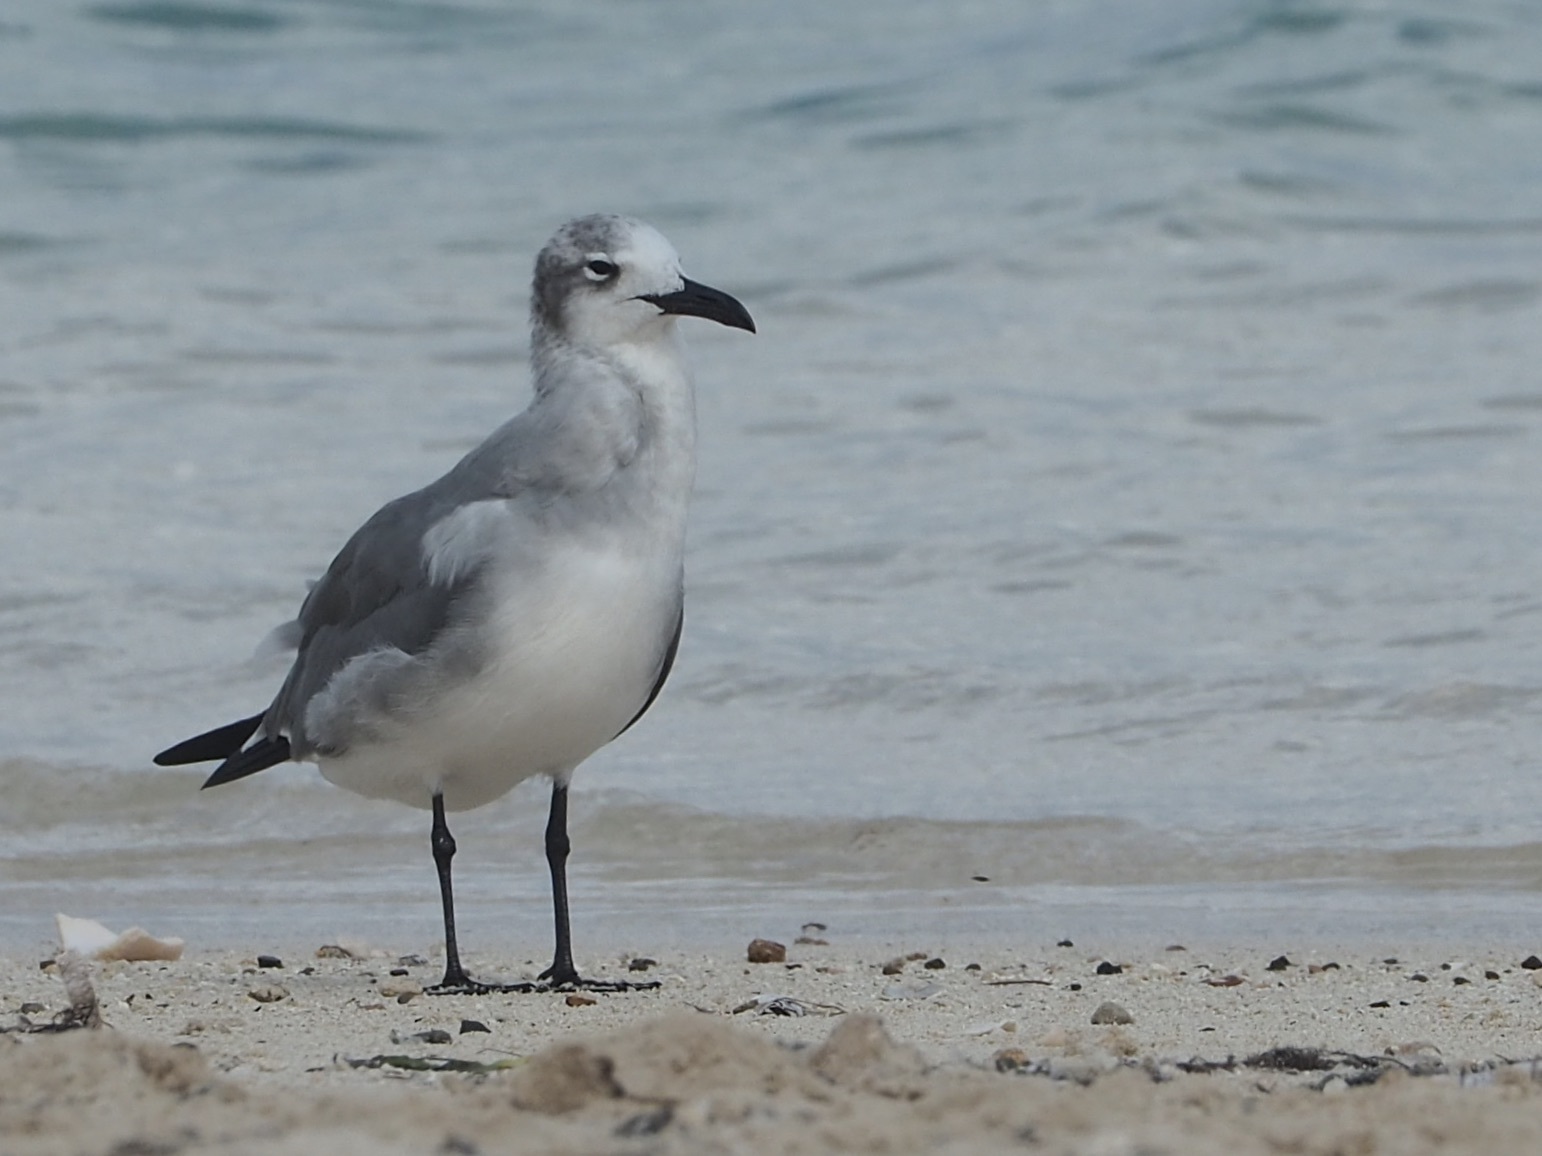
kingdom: Animalia
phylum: Chordata
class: Aves
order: Charadriiformes
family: Laridae
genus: Leucophaeus
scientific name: Leucophaeus atricilla
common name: Laughing gull
